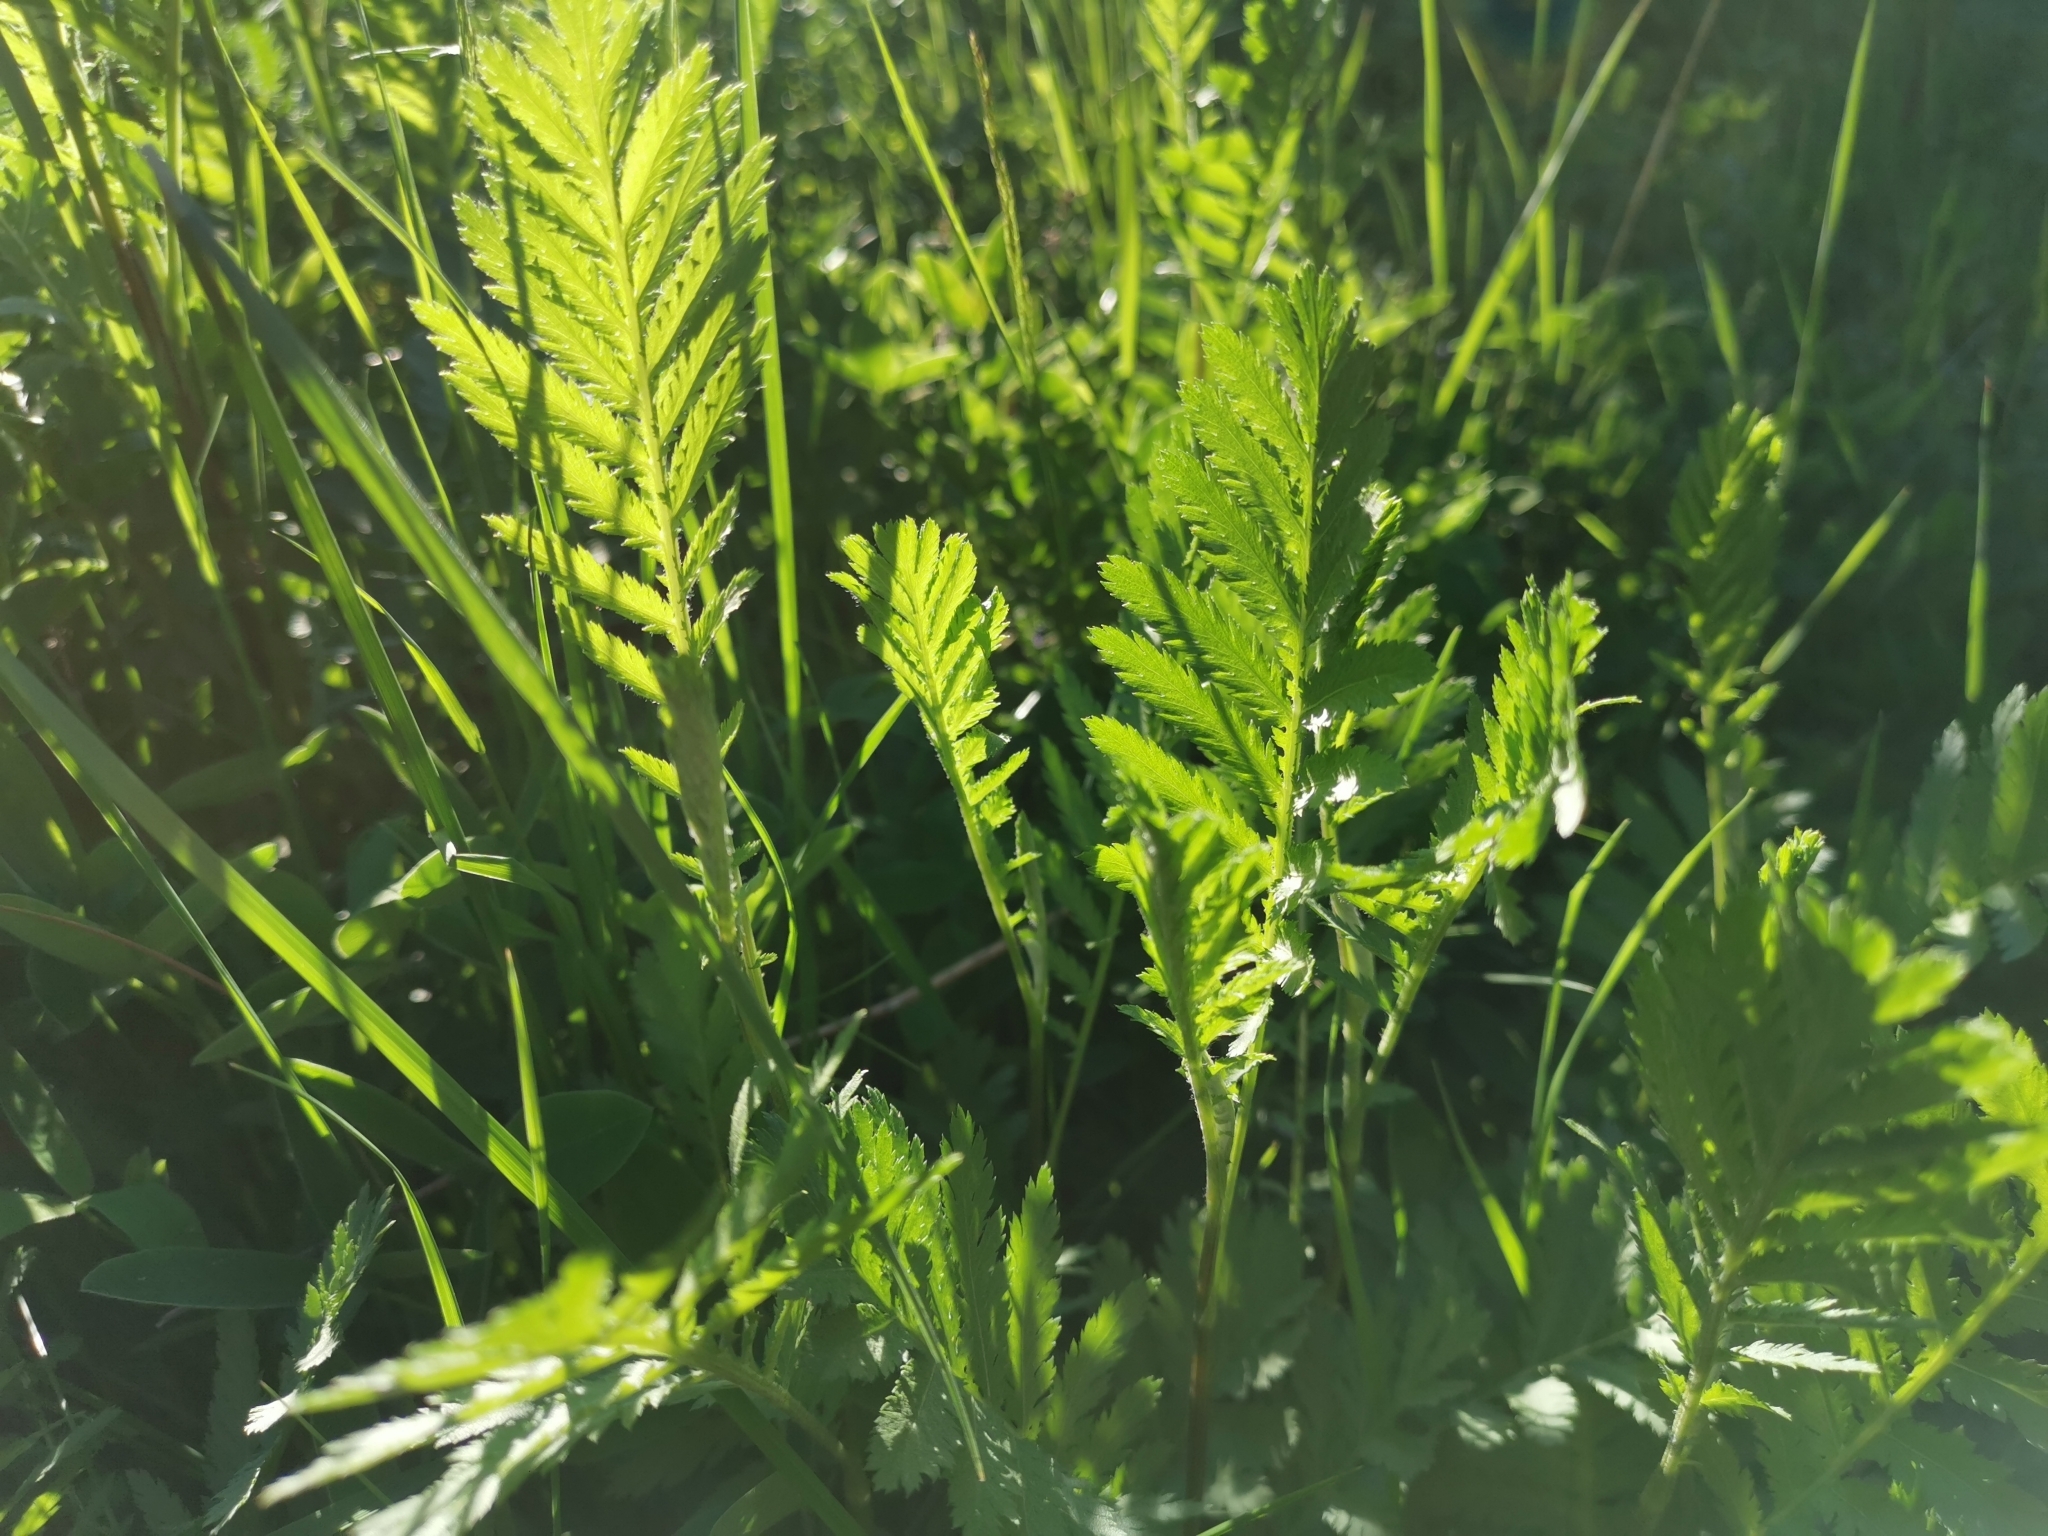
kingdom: Plantae
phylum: Tracheophyta
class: Magnoliopsida
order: Asterales
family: Asteraceae
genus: Tanacetum
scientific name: Tanacetum vulgare
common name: Common tansy
